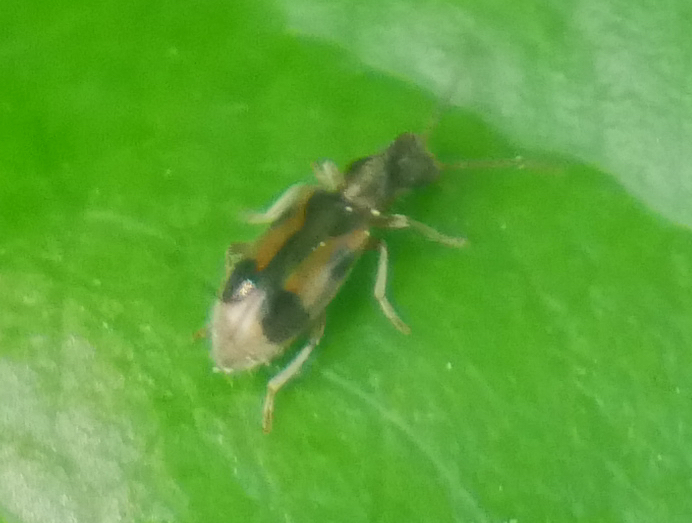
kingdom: Animalia
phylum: Arthropoda
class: Insecta
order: Coleoptera
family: Anthicidae
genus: Notoxus
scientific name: Notoxus monoceros
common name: Monoceros beetle
